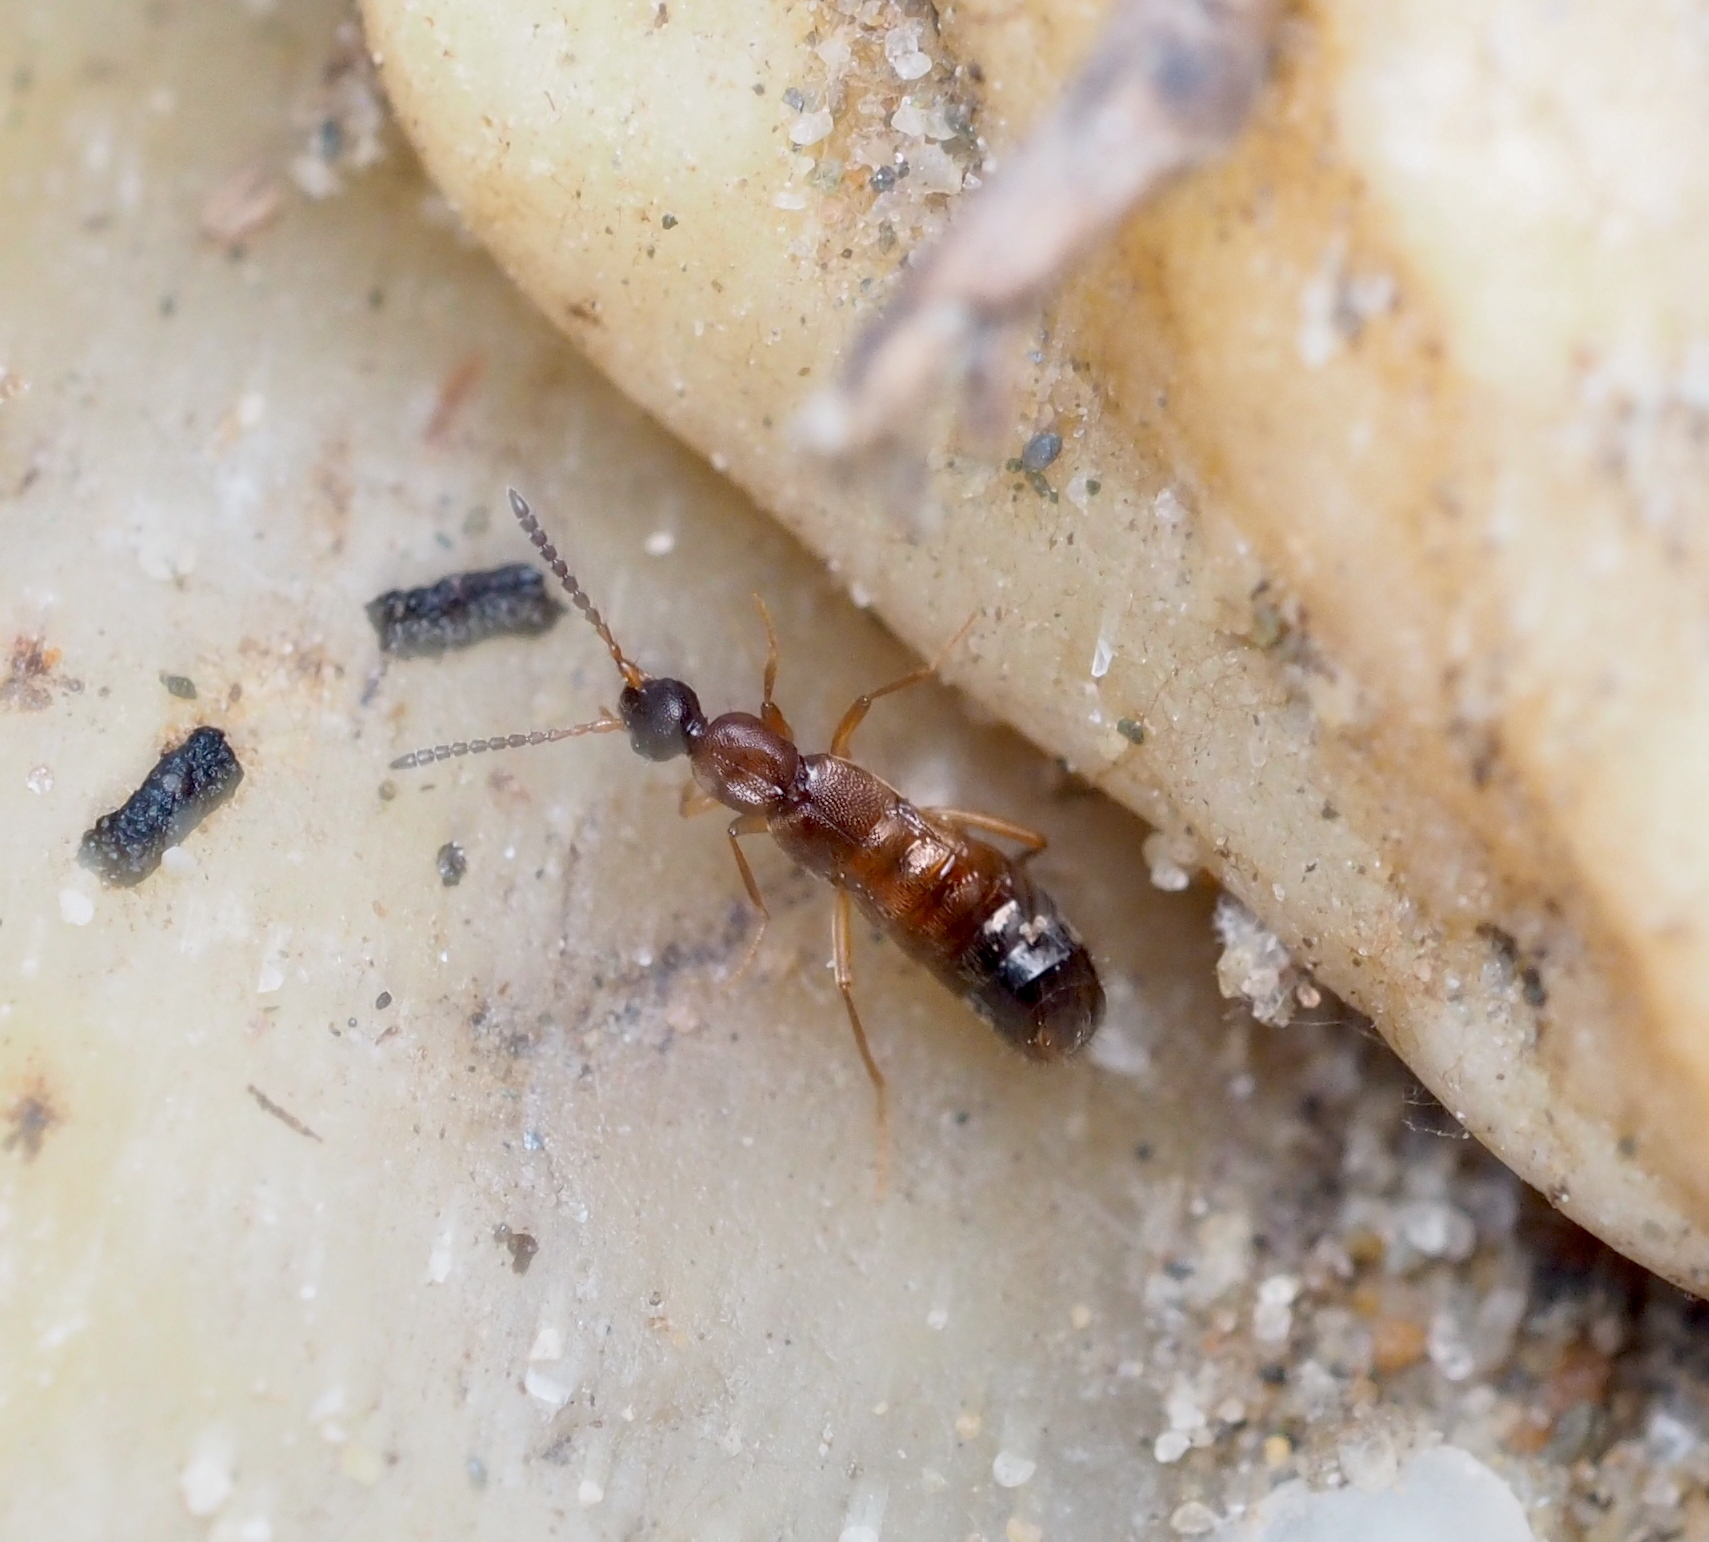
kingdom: Animalia
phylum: Arthropoda
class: Insecta
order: Coleoptera
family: Staphylinidae
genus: Drusilla
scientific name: Drusilla canaliculata
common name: Rove beetle
